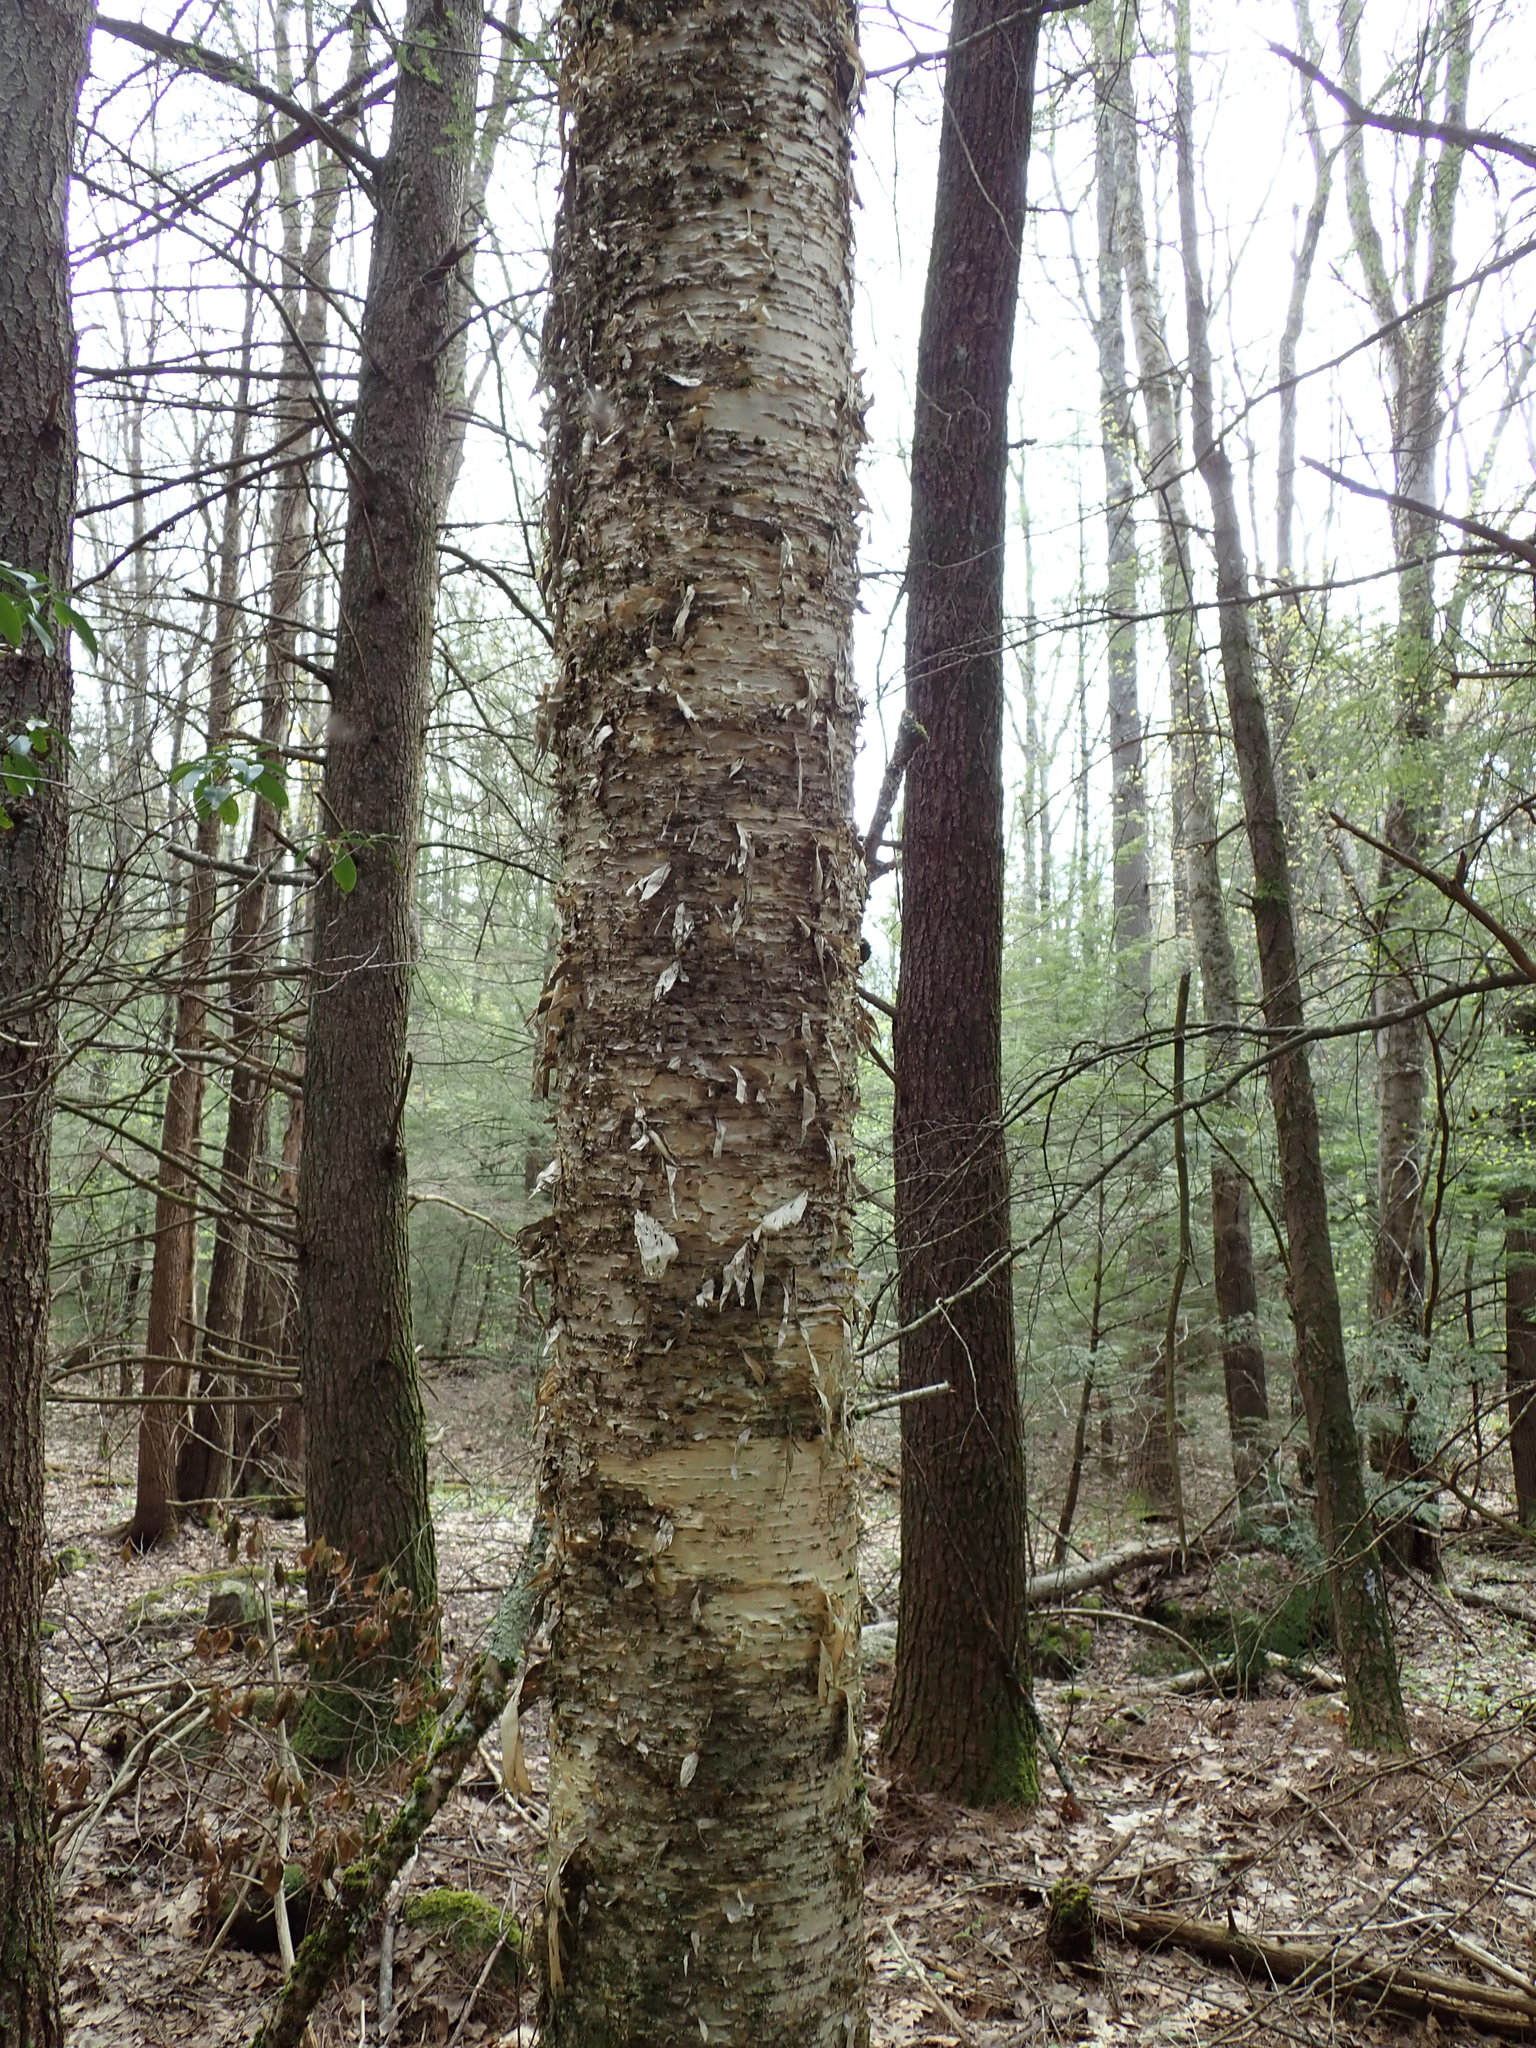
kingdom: Plantae
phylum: Tracheophyta
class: Magnoliopsida
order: Fagales
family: Betulaceae
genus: Betula
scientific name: Betula alleghaniensis
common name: Yellow birch
